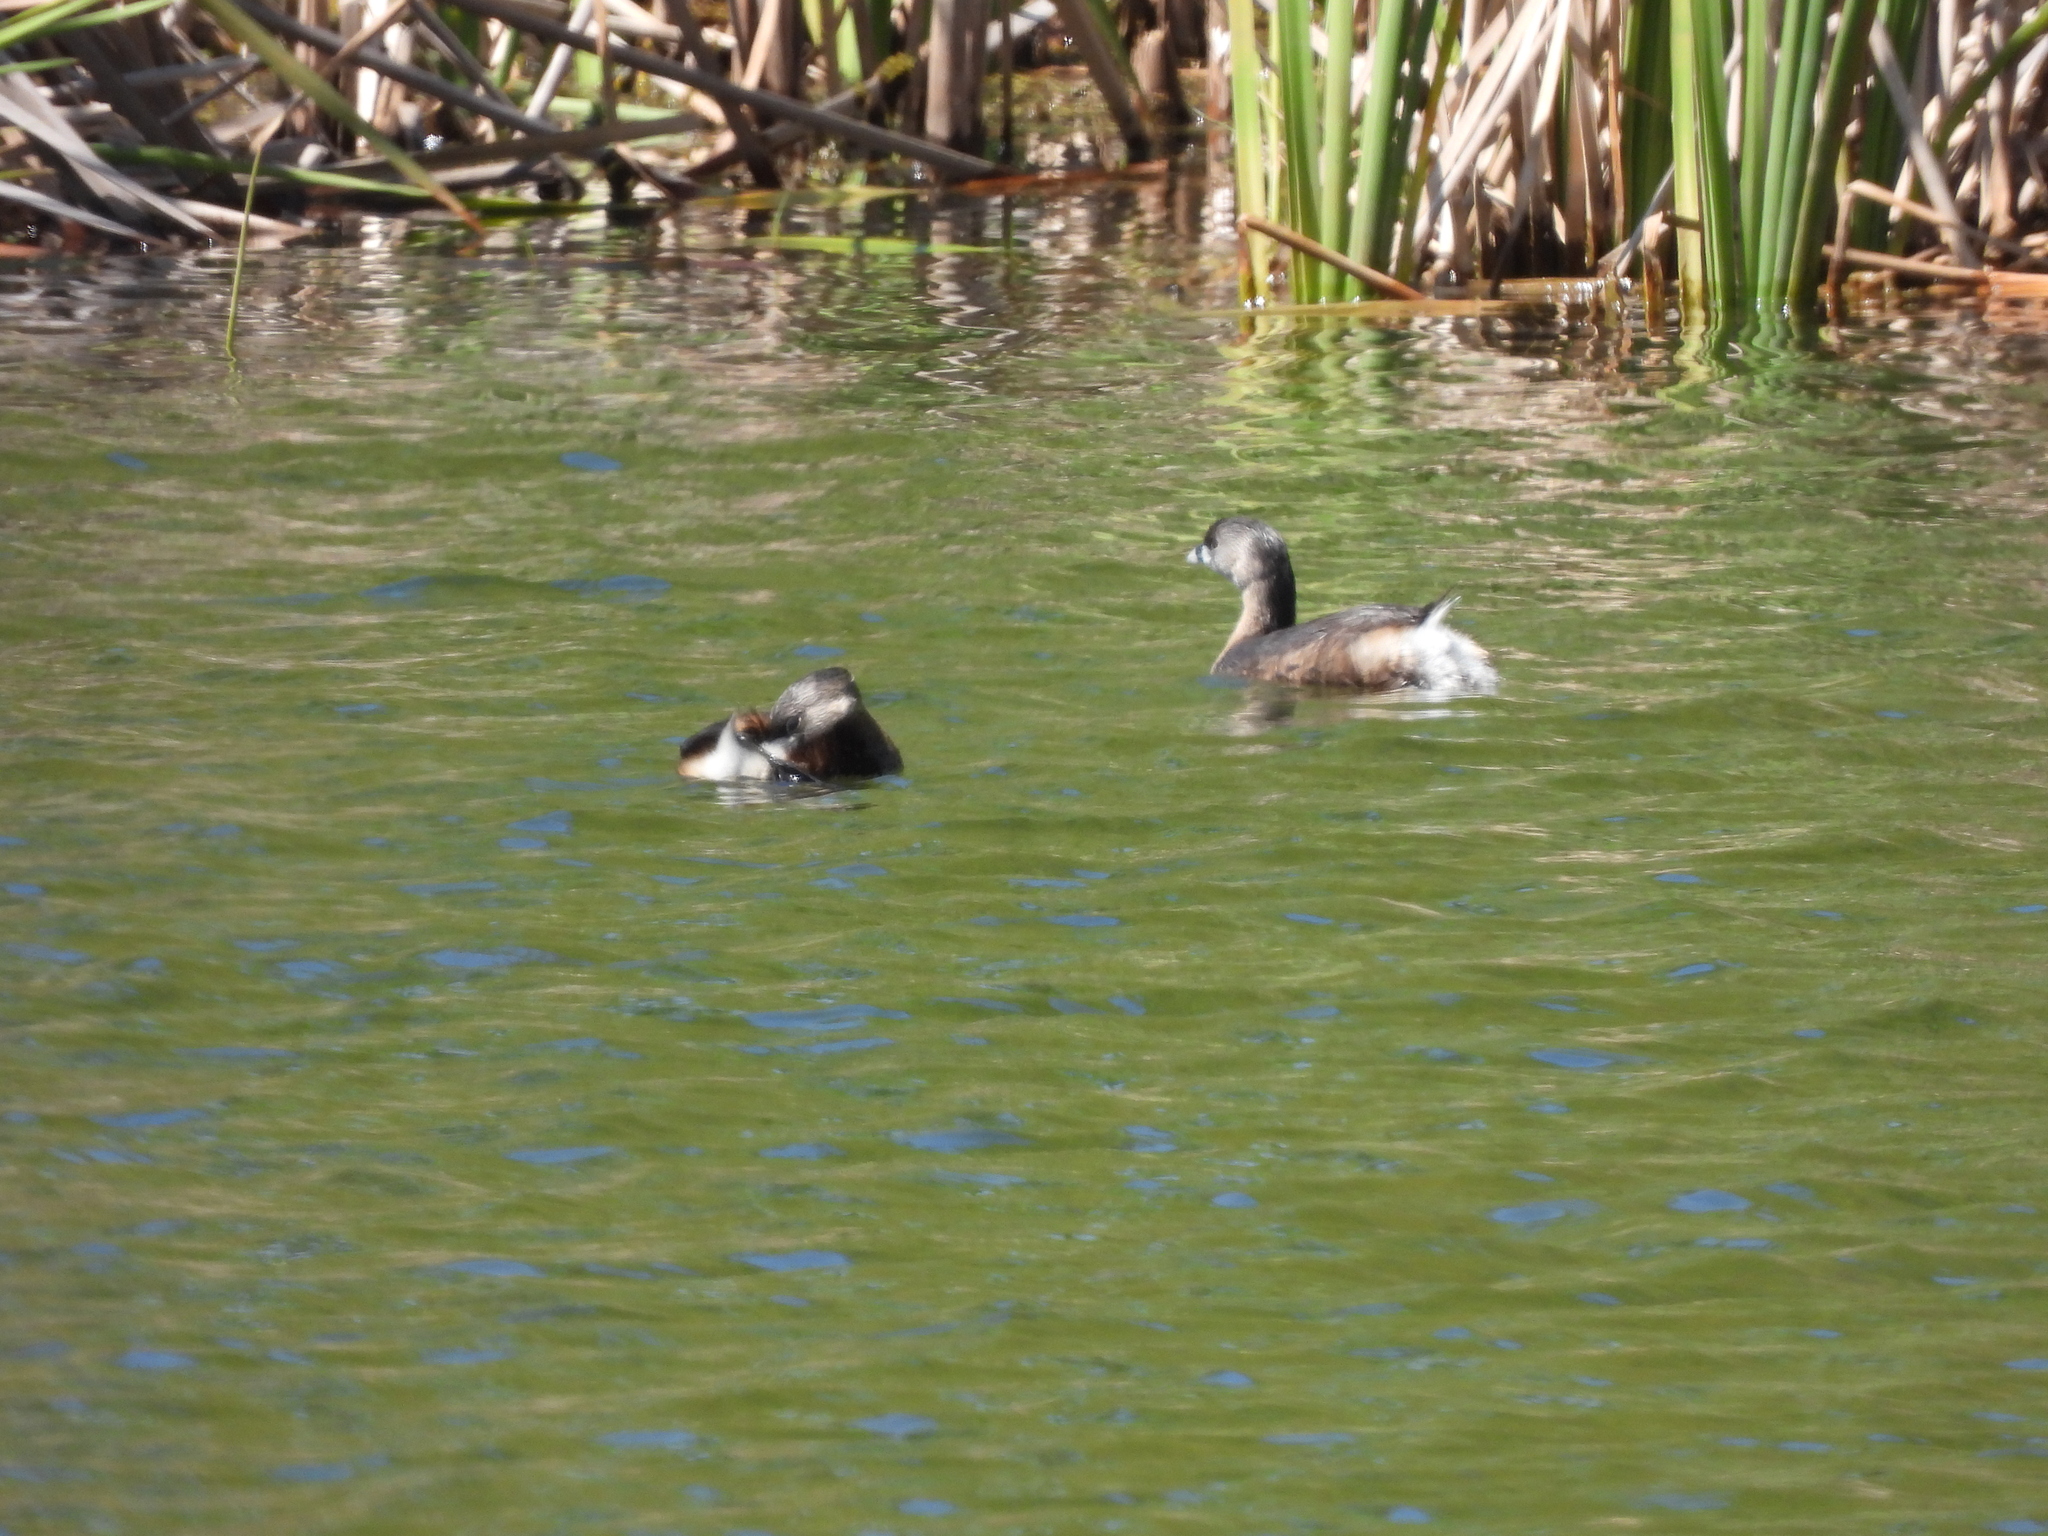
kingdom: Animalia
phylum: Chordata
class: Aves
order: Podicipediformes
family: Podicipedidae
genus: Podilymbus
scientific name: Podilymbus podiceps
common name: Pied-billed grebe
